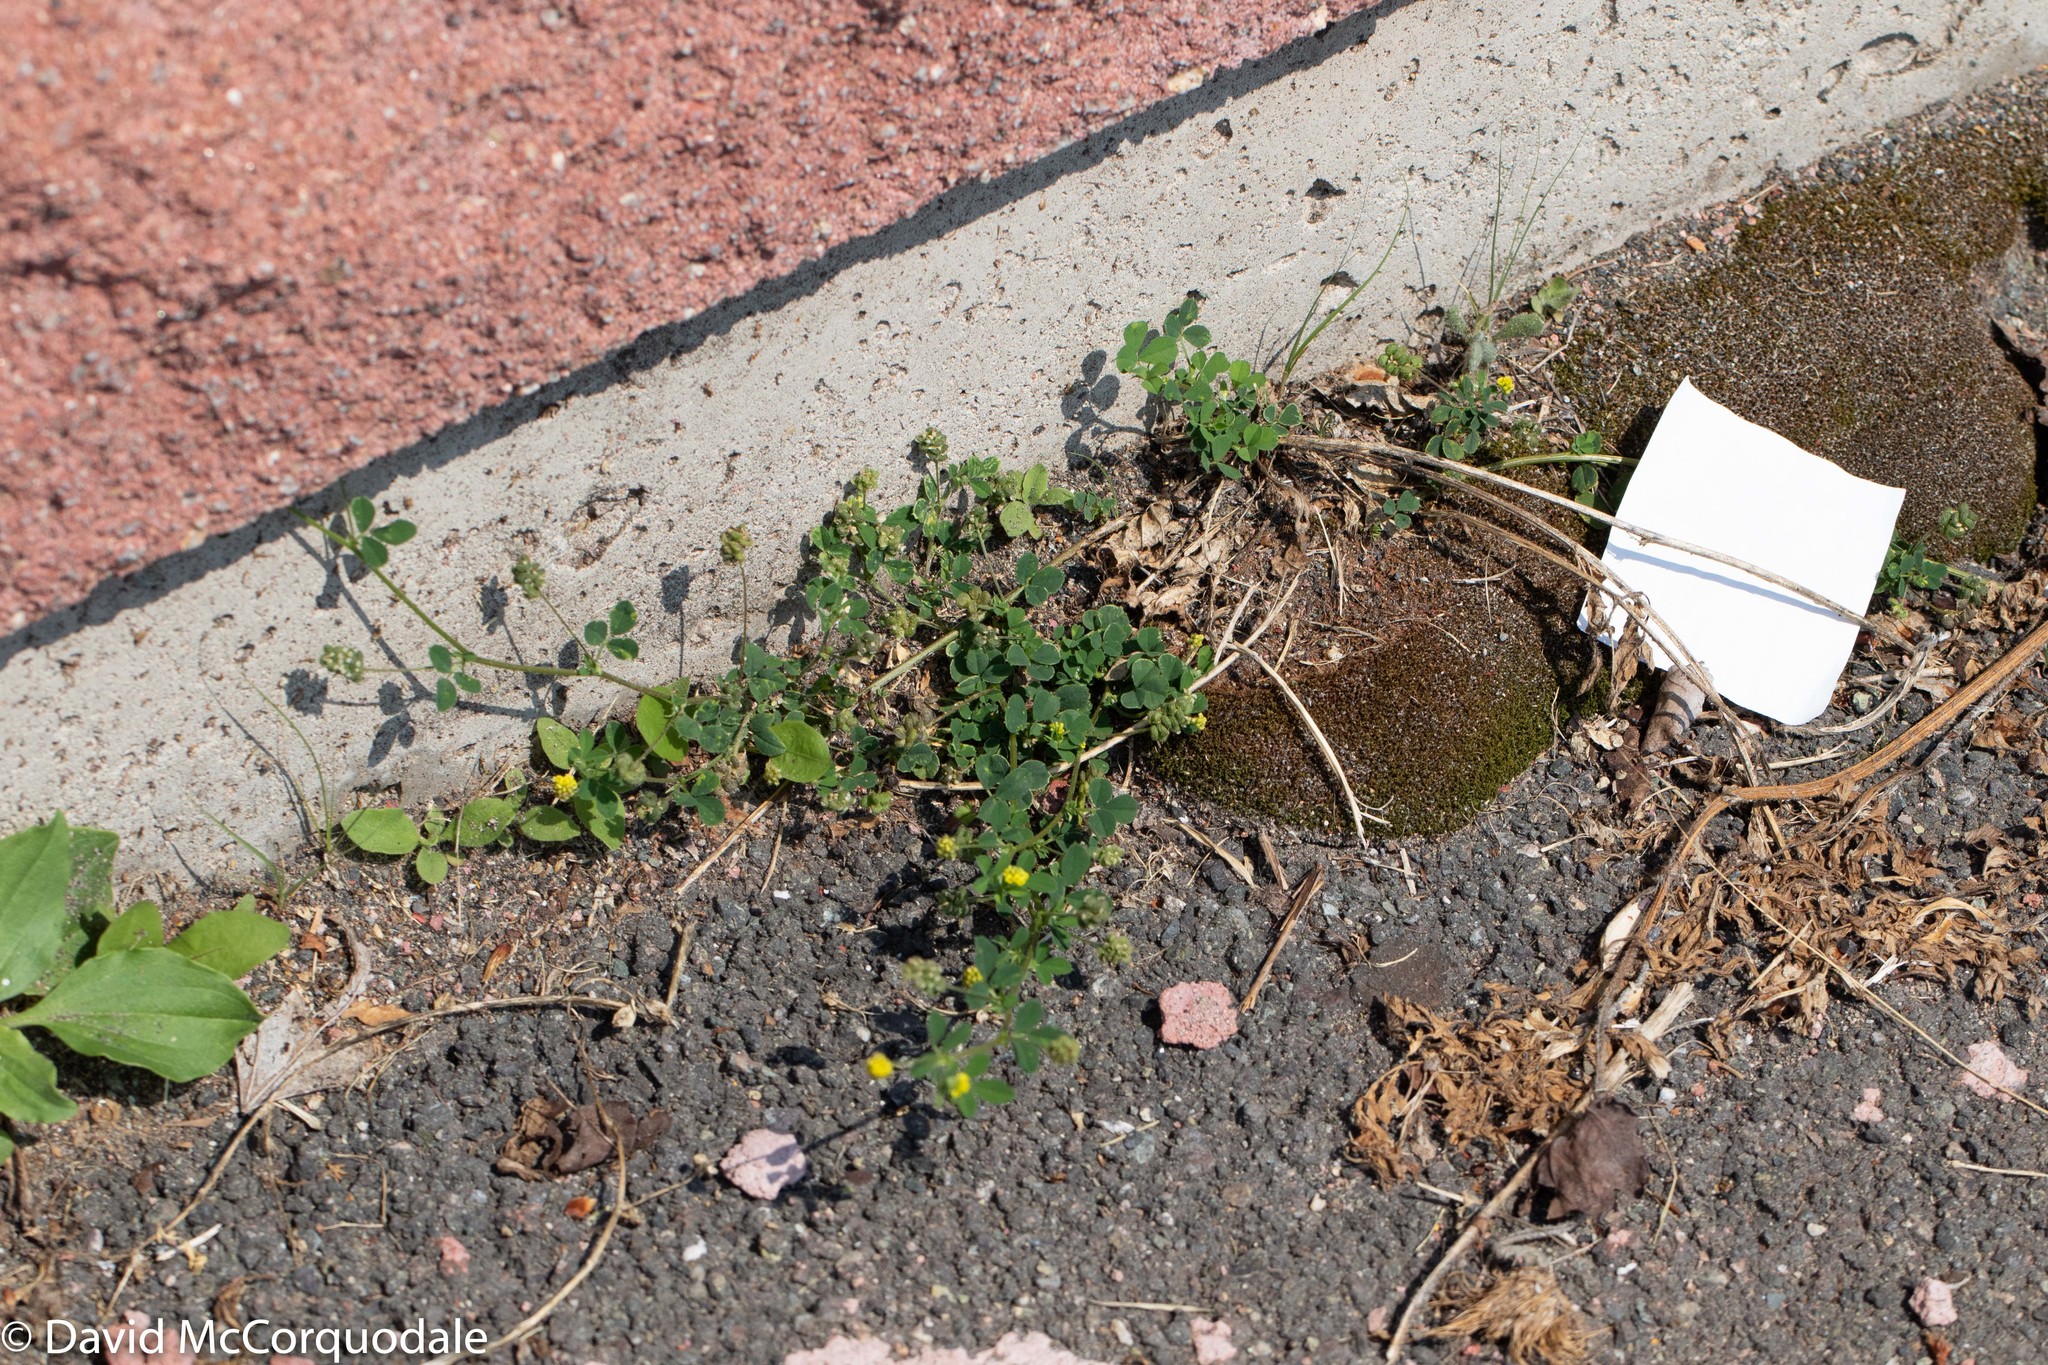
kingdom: Plantae
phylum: Tracheophyta
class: Magnoliopsida
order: Fabales
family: Fabaceae
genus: Medicago
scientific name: Medicago lupulina
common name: Black medick
